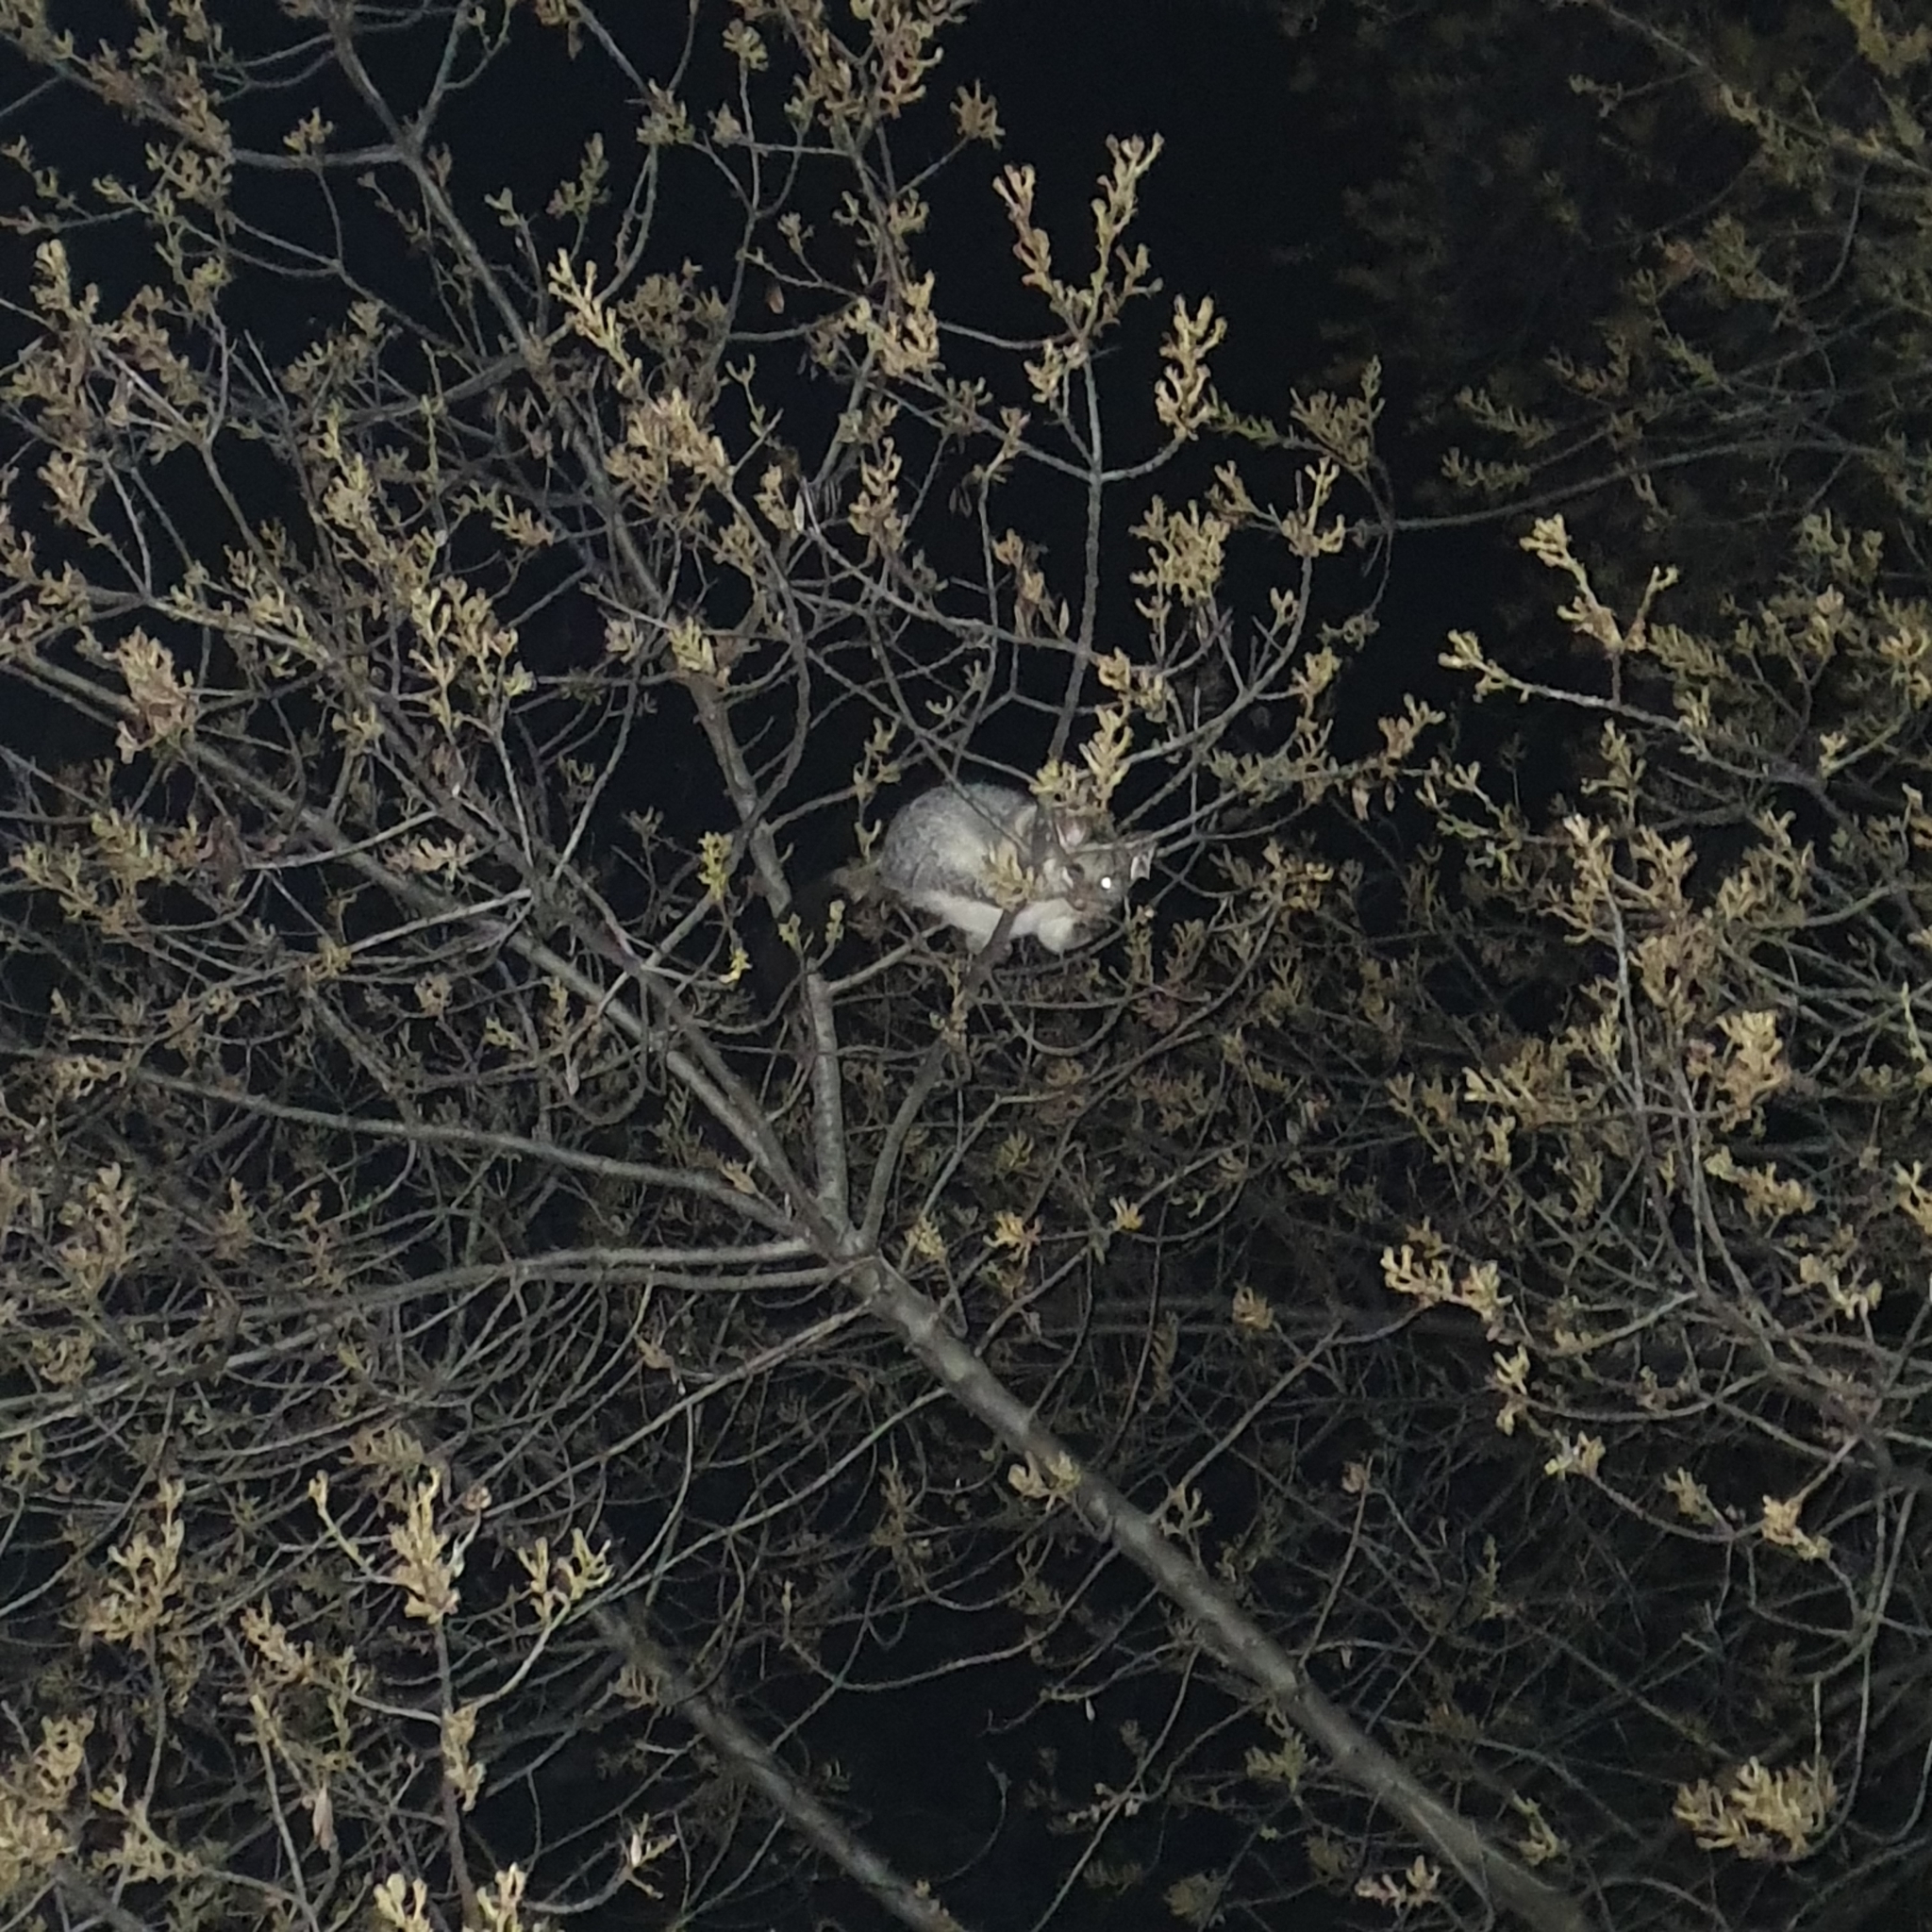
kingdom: Animalia
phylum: Chordata
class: Mammalia
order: Diprotodontia
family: Phalangeridae
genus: Trichosurus
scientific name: Trichosurus vulpecula
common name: Common brushtail
